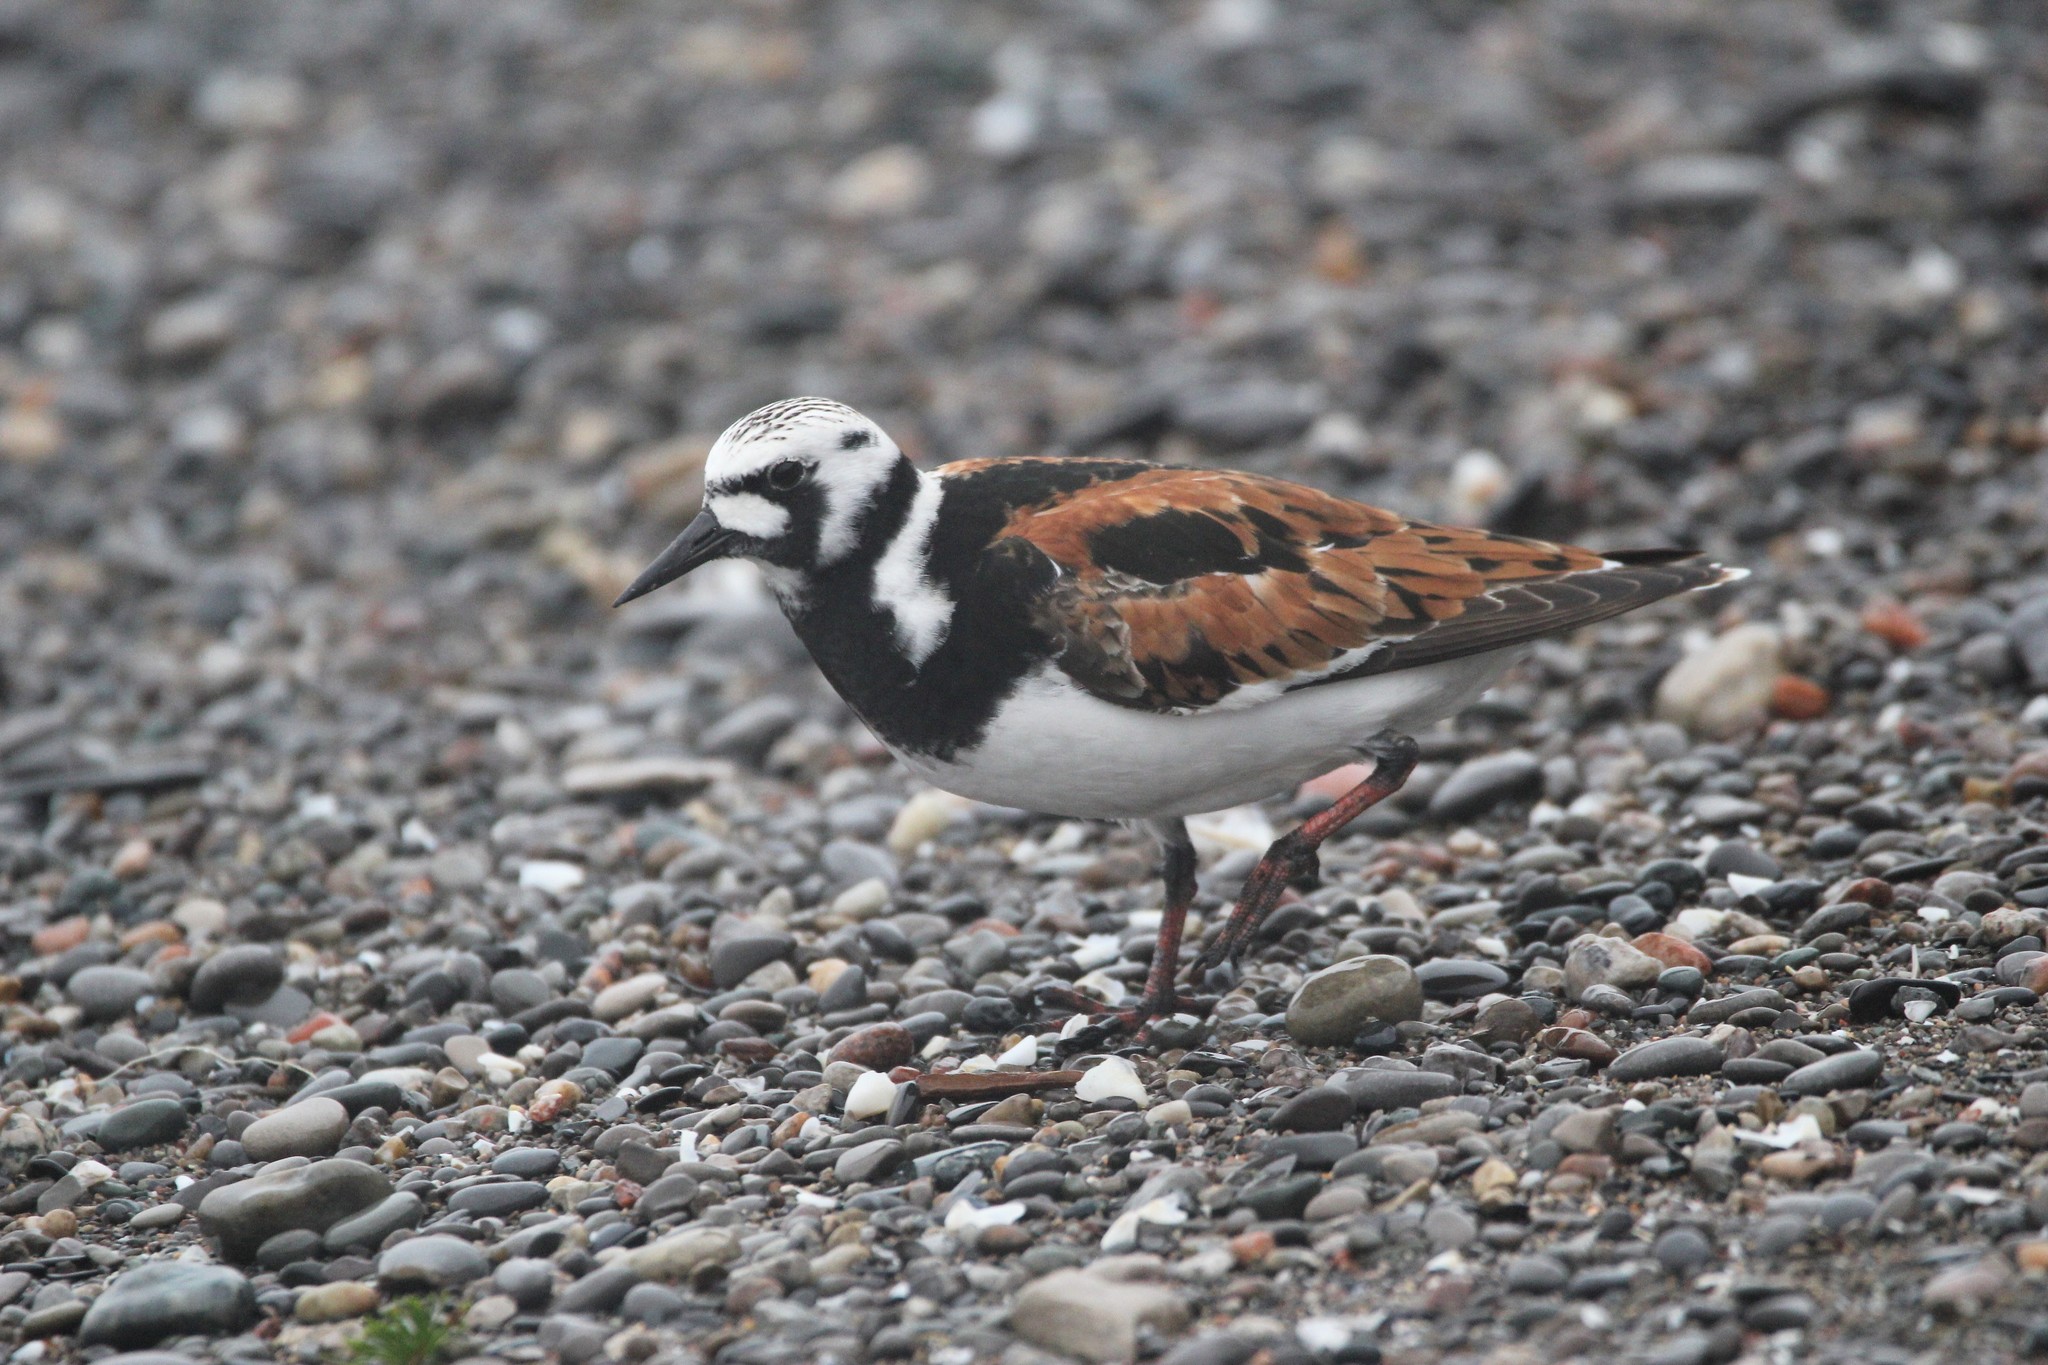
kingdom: Animalia
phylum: Chordata
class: Aves
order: Charadriiformes
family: Scolopacidae
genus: Arenaria
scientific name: Arenaria interpres
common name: Ruddy turnstone
